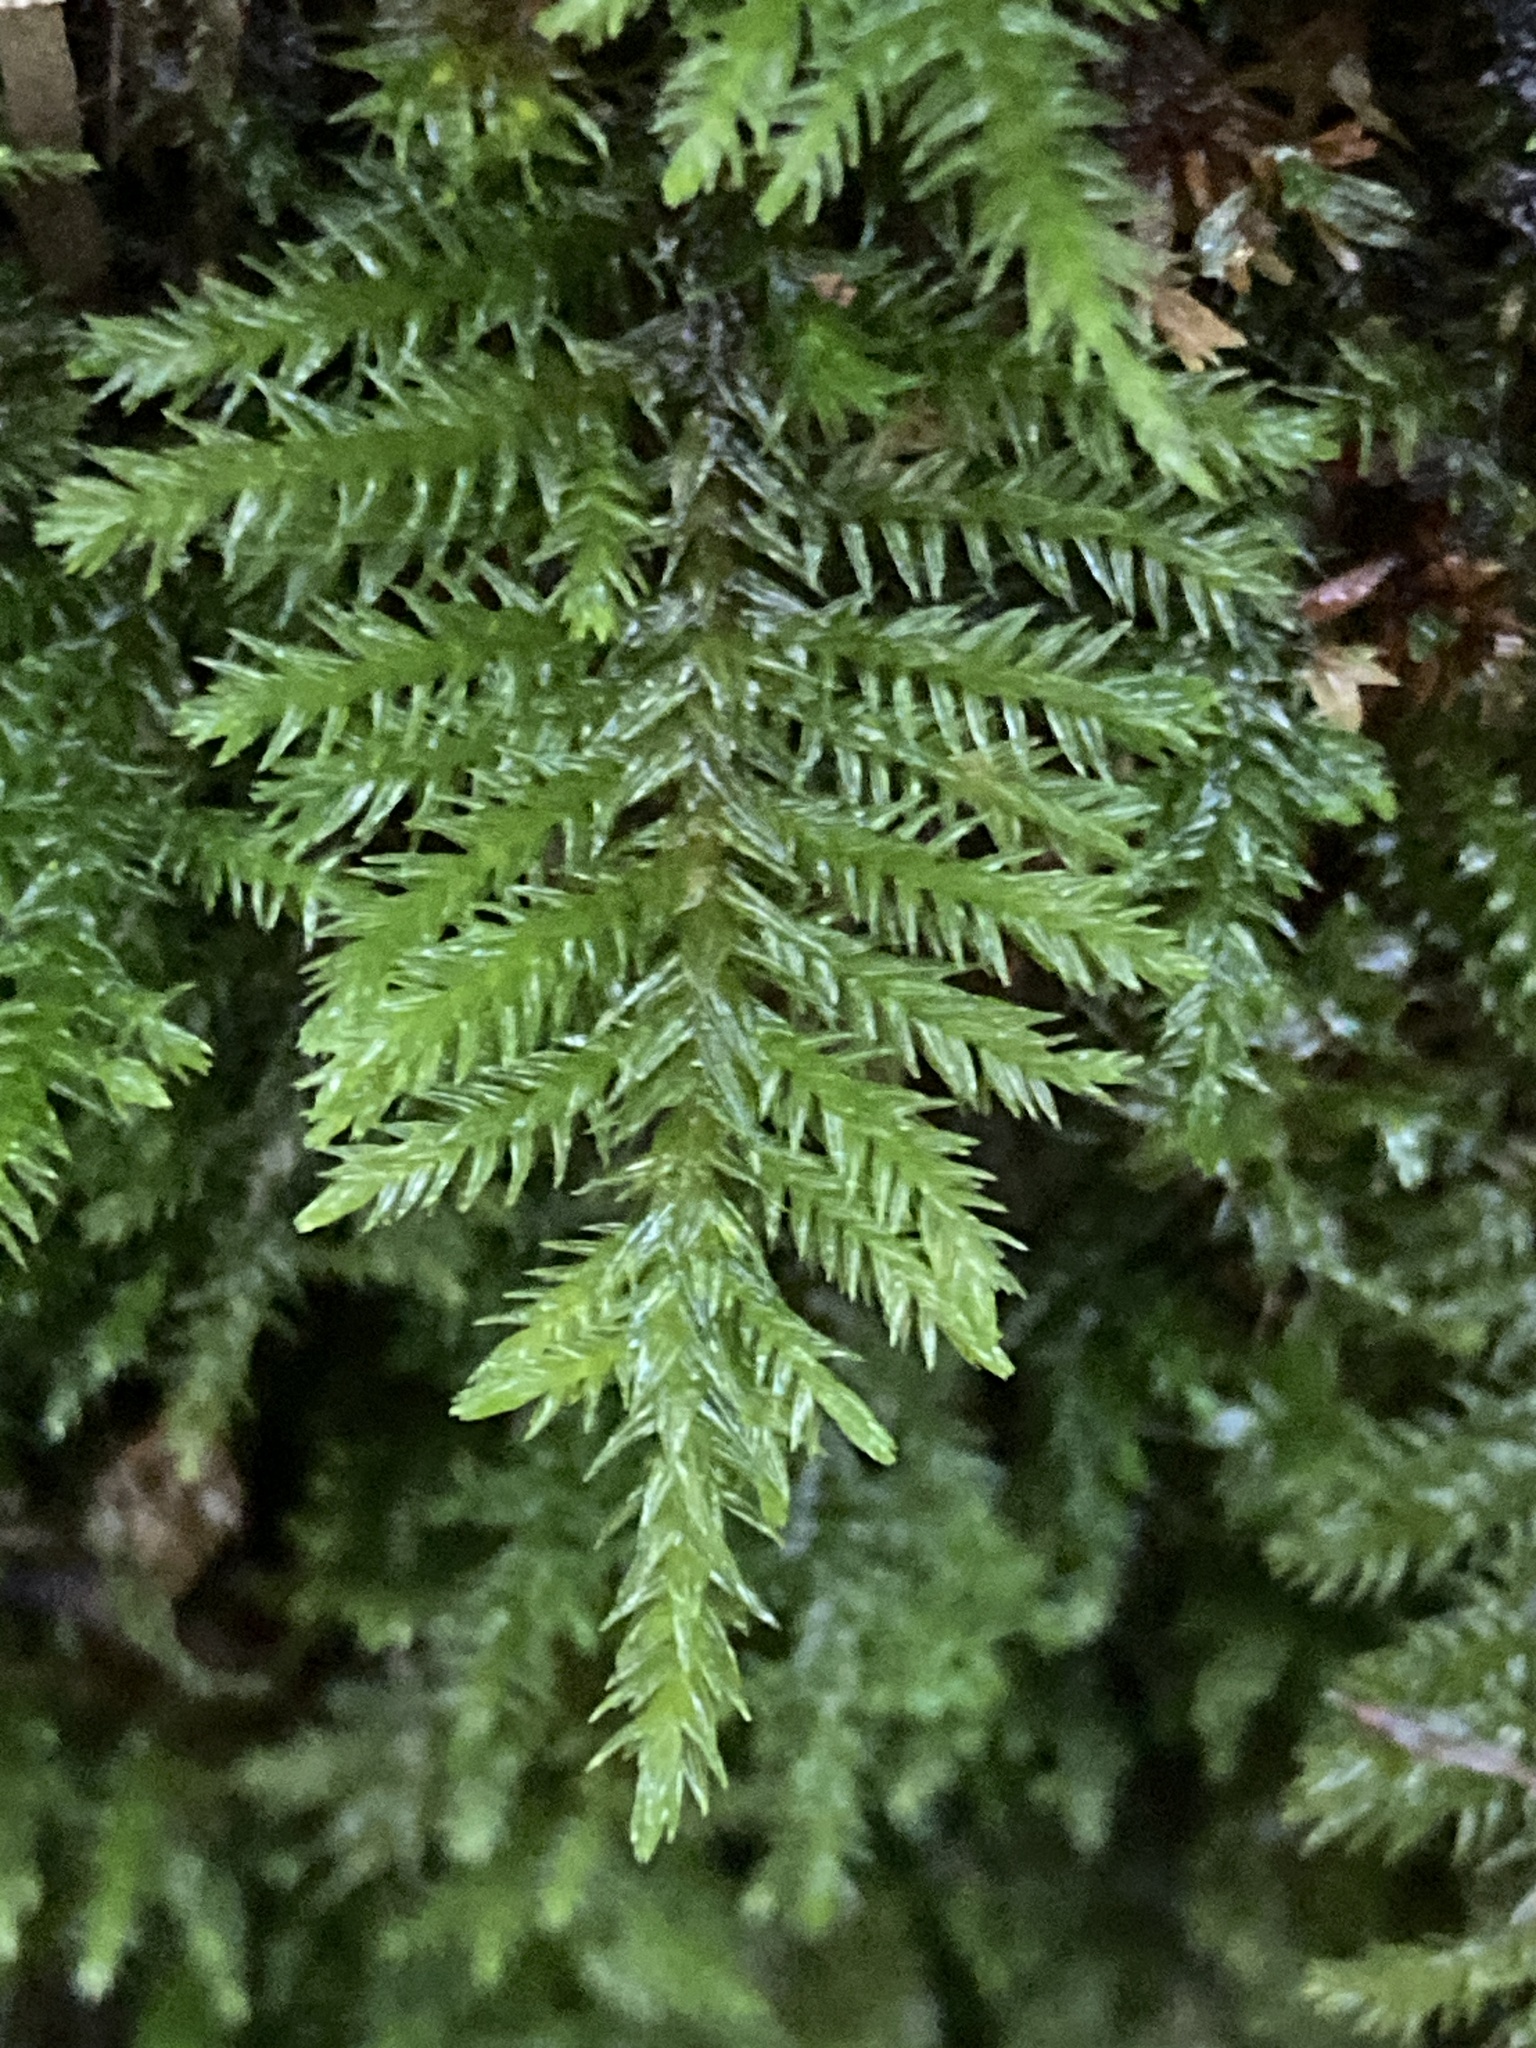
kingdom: Plantae
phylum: Bryophyta
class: Bryopsida
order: Hypnales
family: Cryphaeaceae
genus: Dendroalsia
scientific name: Dendroalsia abietina
